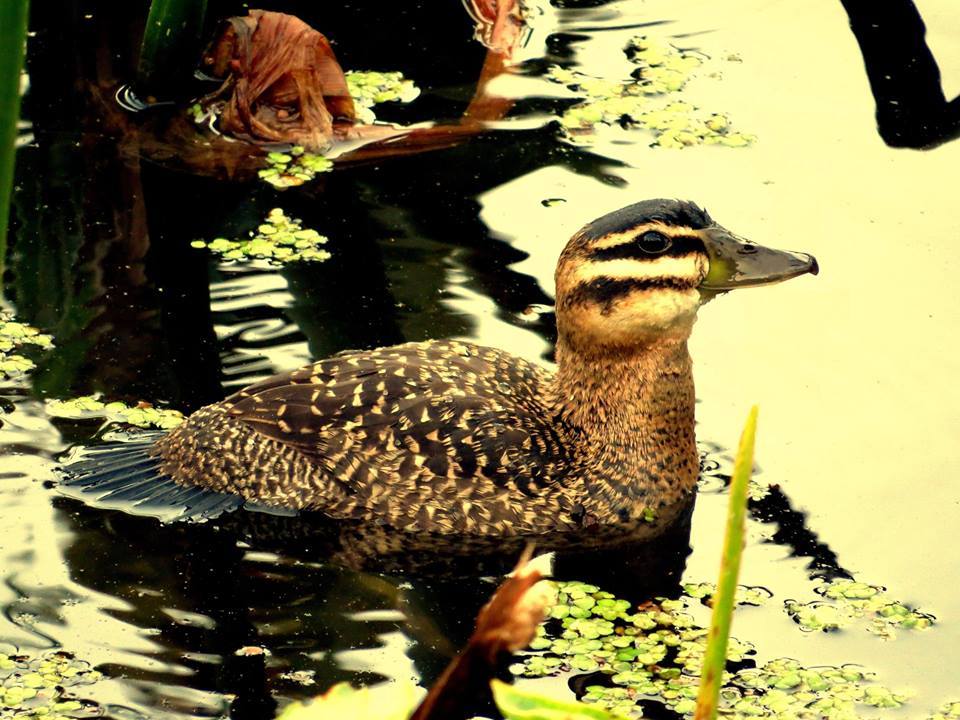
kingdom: Animalia
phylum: Chordata
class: Aves
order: Anseriformes
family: Anatidae
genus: Nomonyx
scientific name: Nomonyx dominicus
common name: Masked duck
